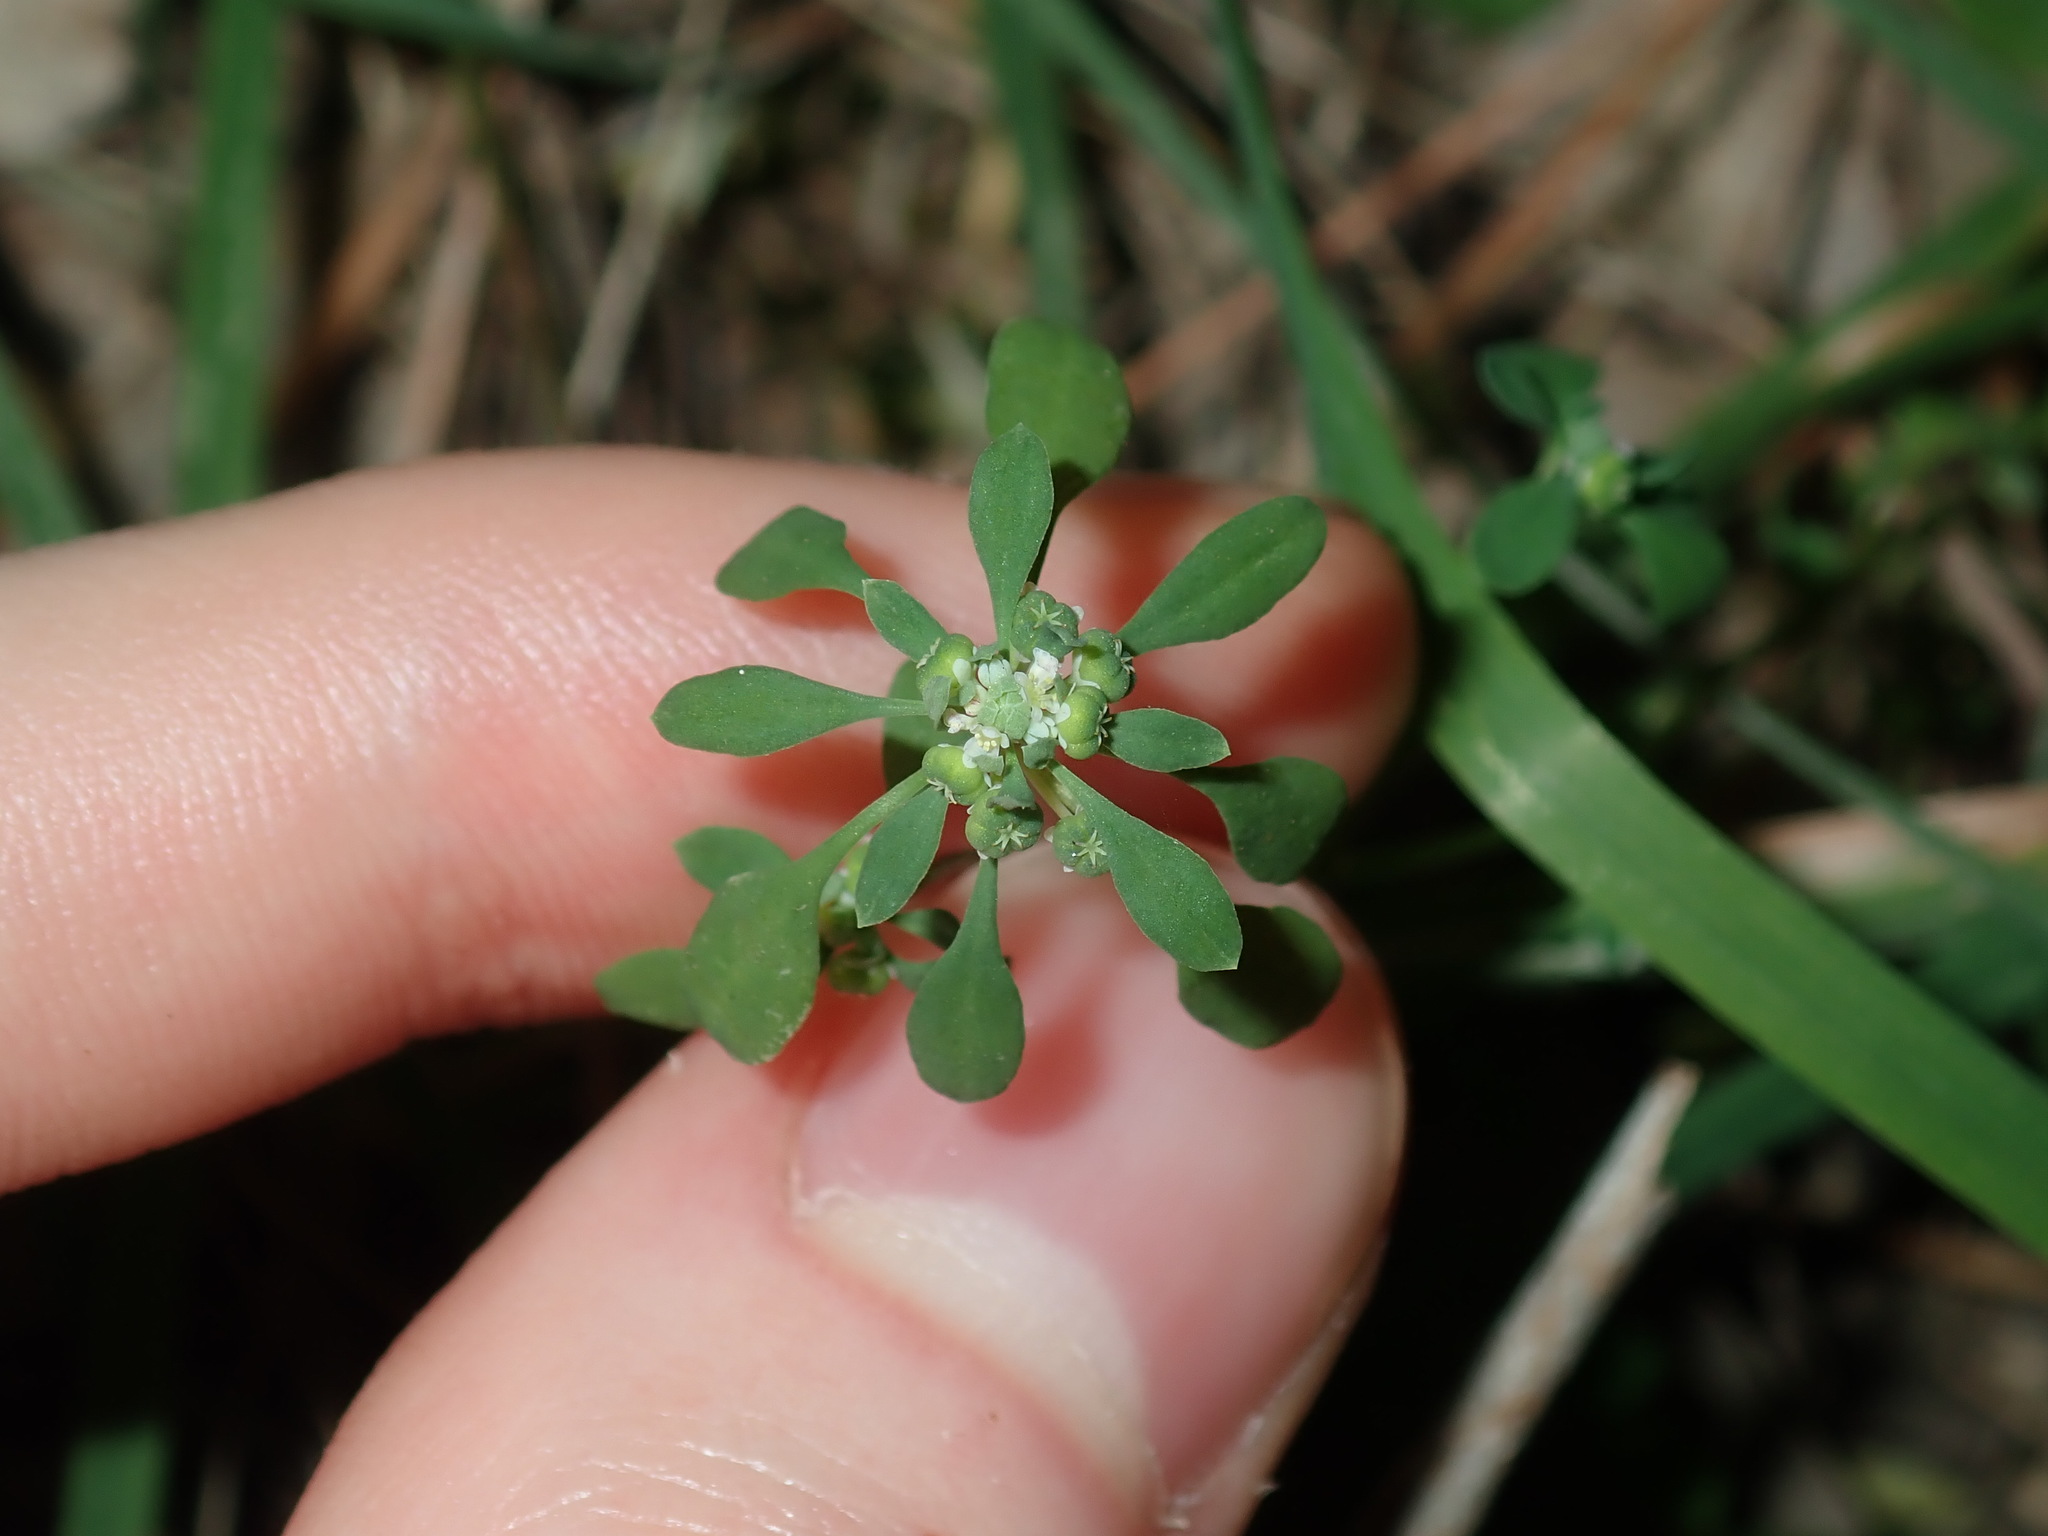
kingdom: Plantae
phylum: Tracheophyta
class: Magnoliopsida
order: Malpighiales
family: Phyllanthaceae
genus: Poranthera
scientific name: Poranthera microphylla
